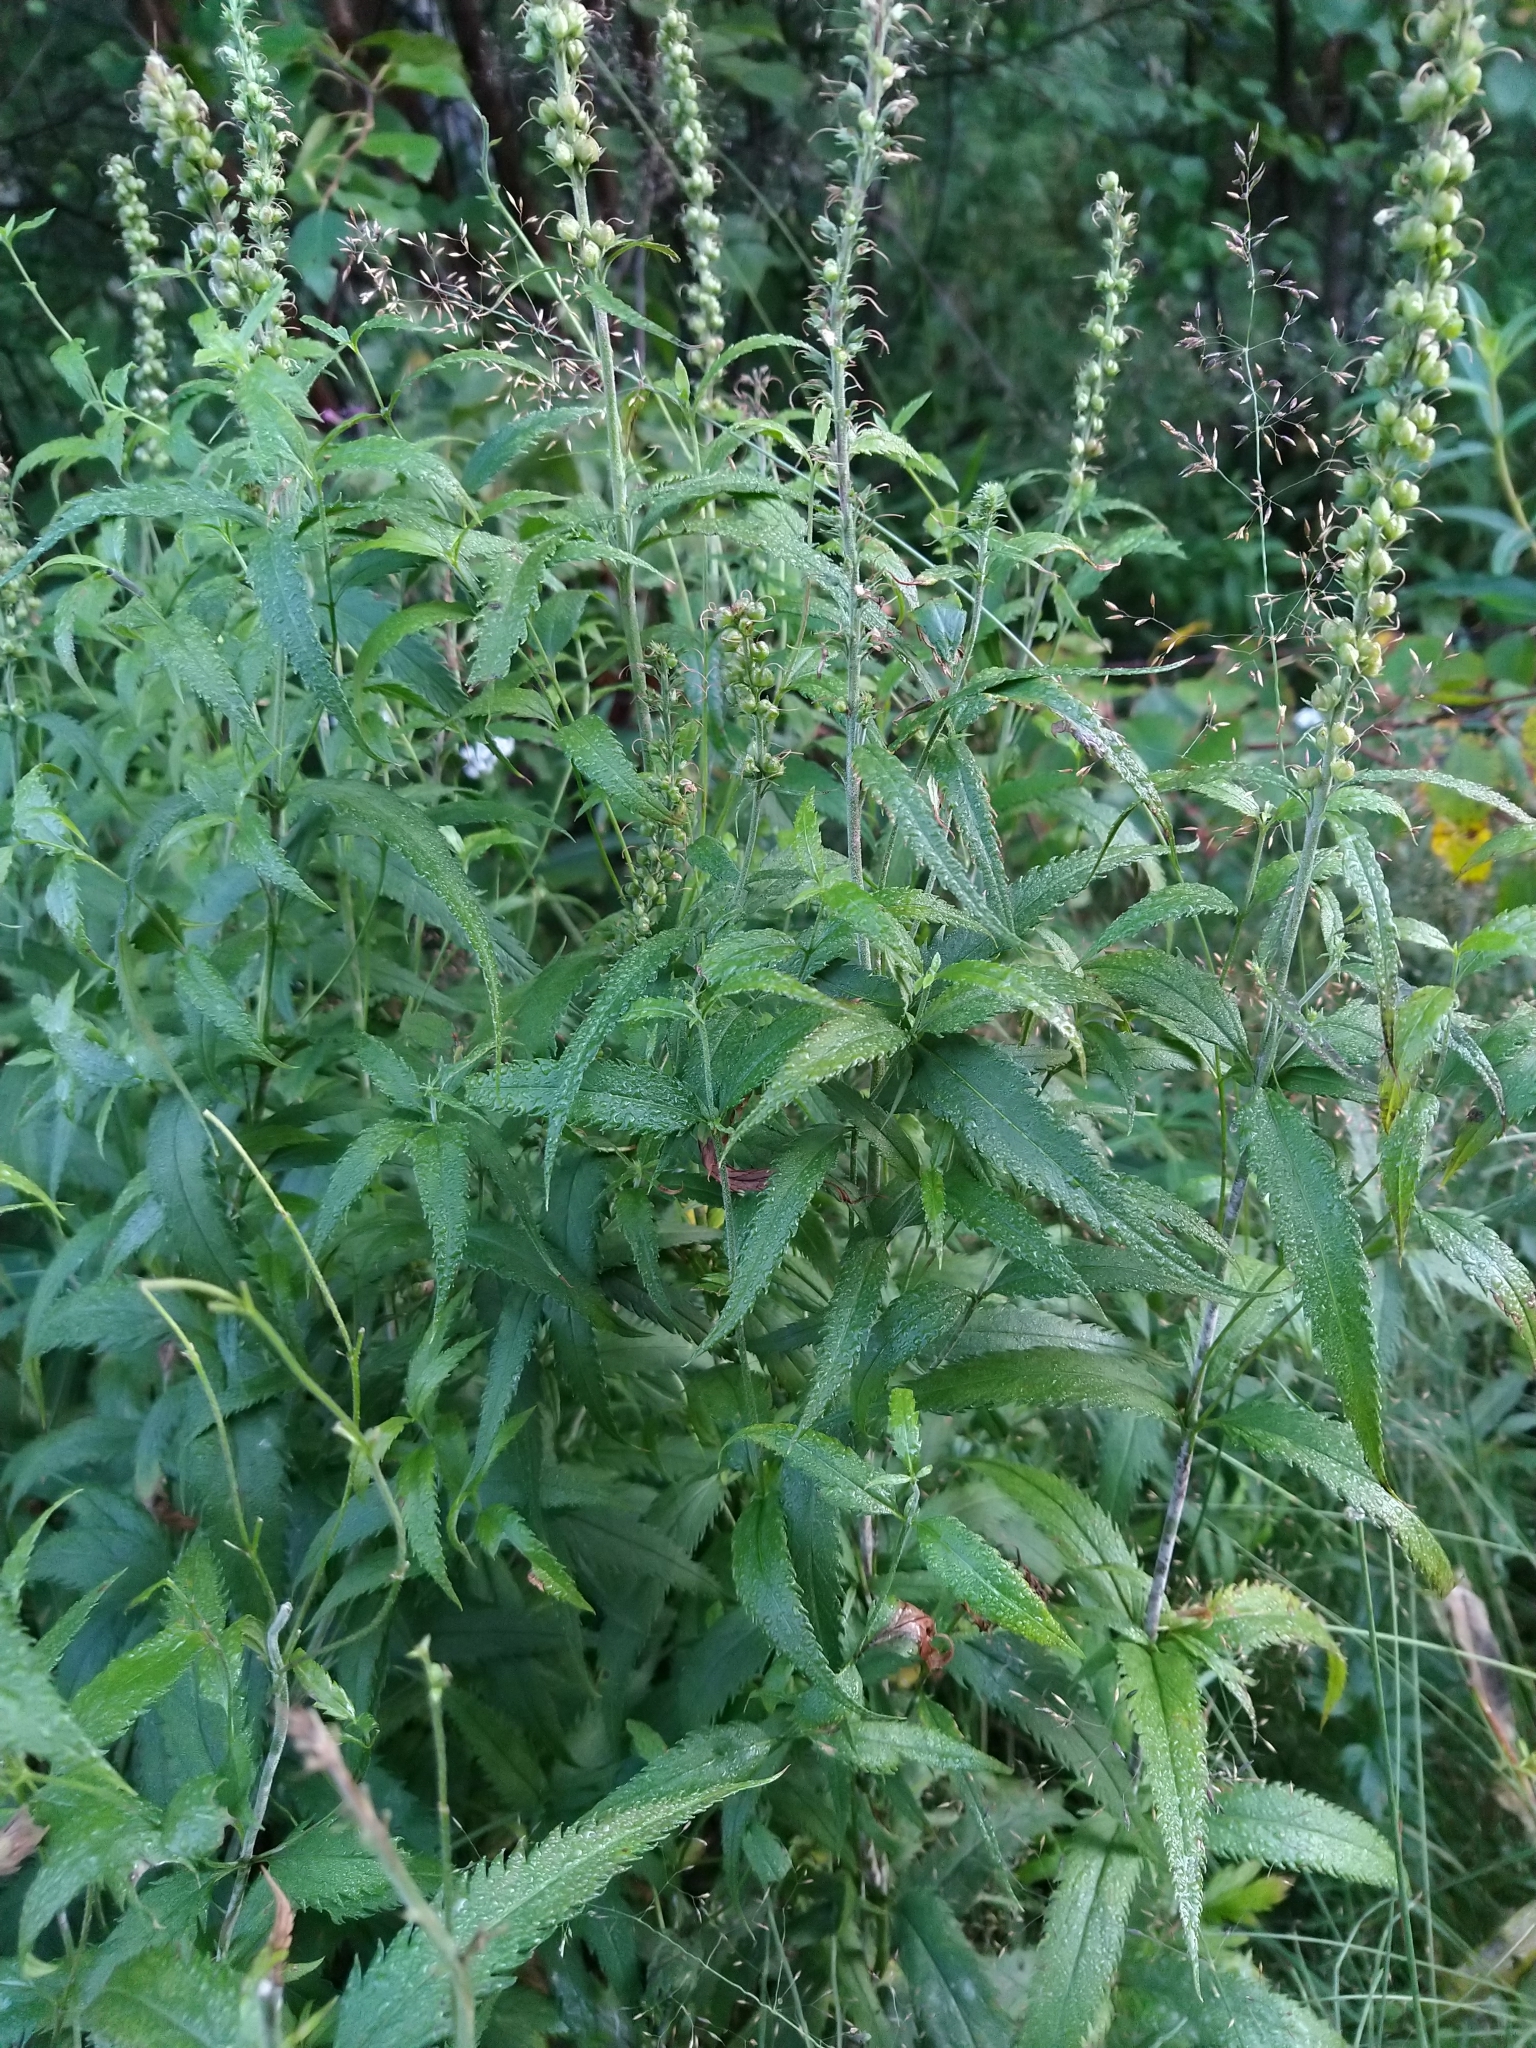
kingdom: Plantae
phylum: Tracheophyta
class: Magnoliopsida
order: Lamiales
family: Plantaginaceae
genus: Veronica
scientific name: Veronica longifolia
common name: Garden speedwell
